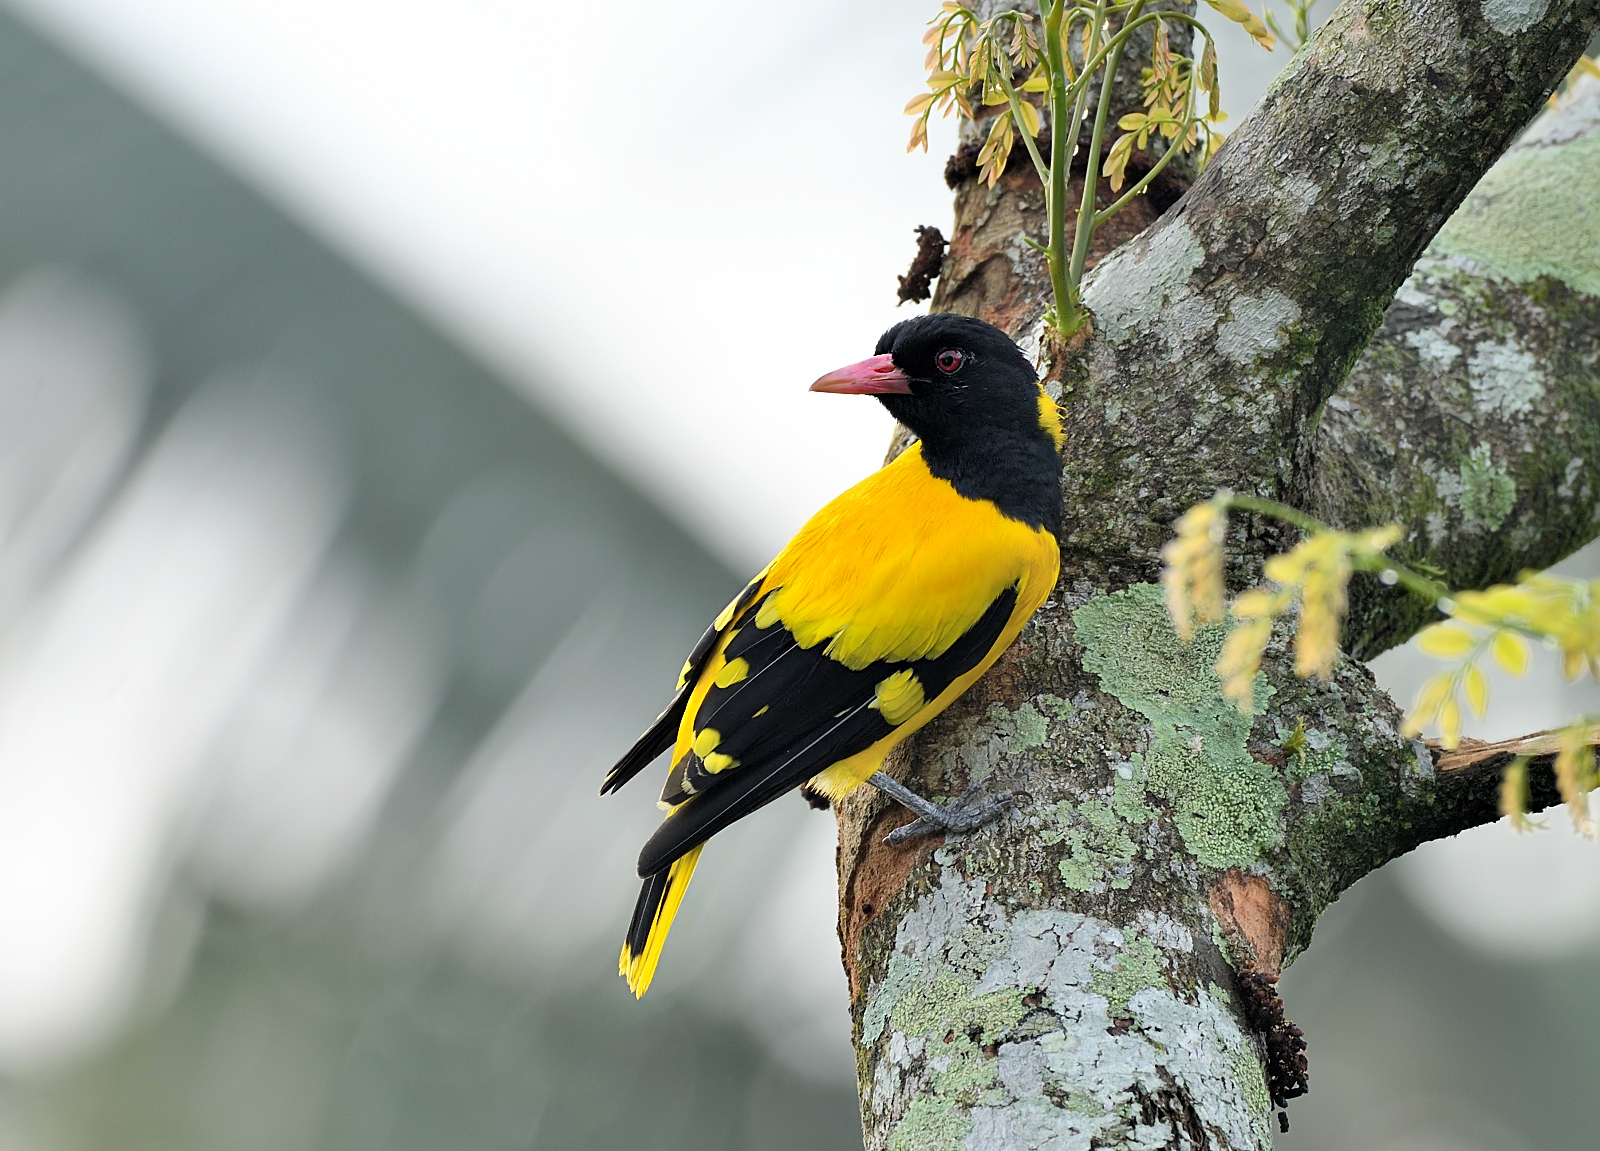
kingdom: Animalia
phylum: Chordata
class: Aves
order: Passeriformes
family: Oriolidae
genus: Oriolus
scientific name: Oriolus xanthornus
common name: Black-hooded oriole
